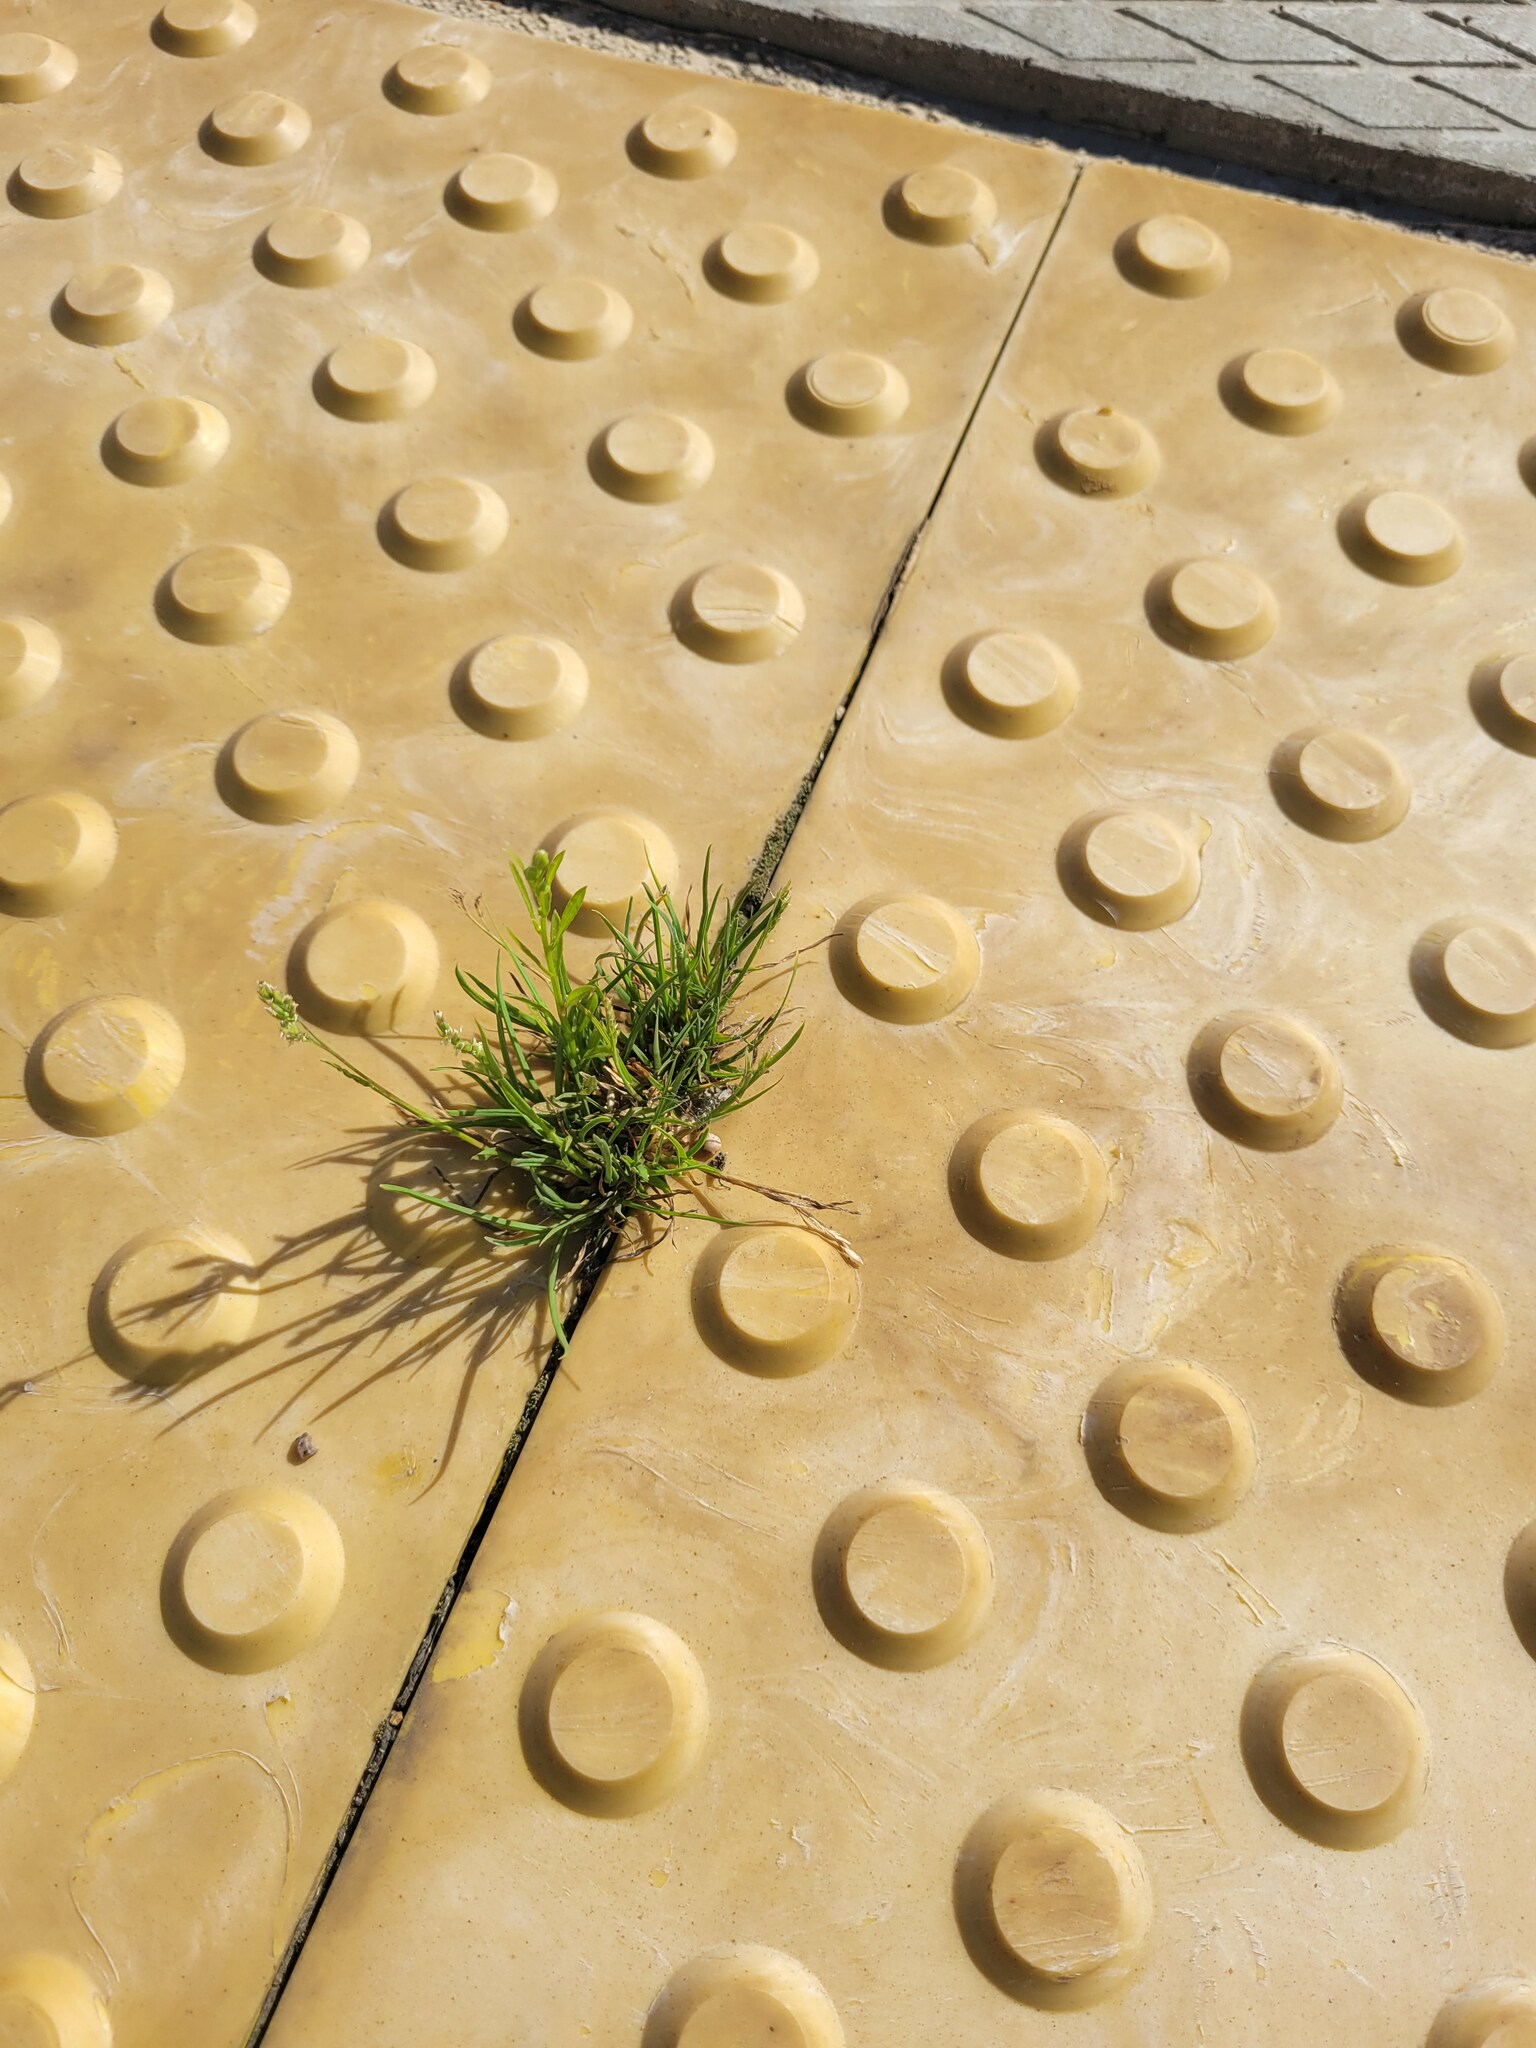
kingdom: Plantae
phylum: Tracheophyta
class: Liliopsida
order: Poales
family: Poaceae
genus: Poa
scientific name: Poa annua
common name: Annual bluegrass
